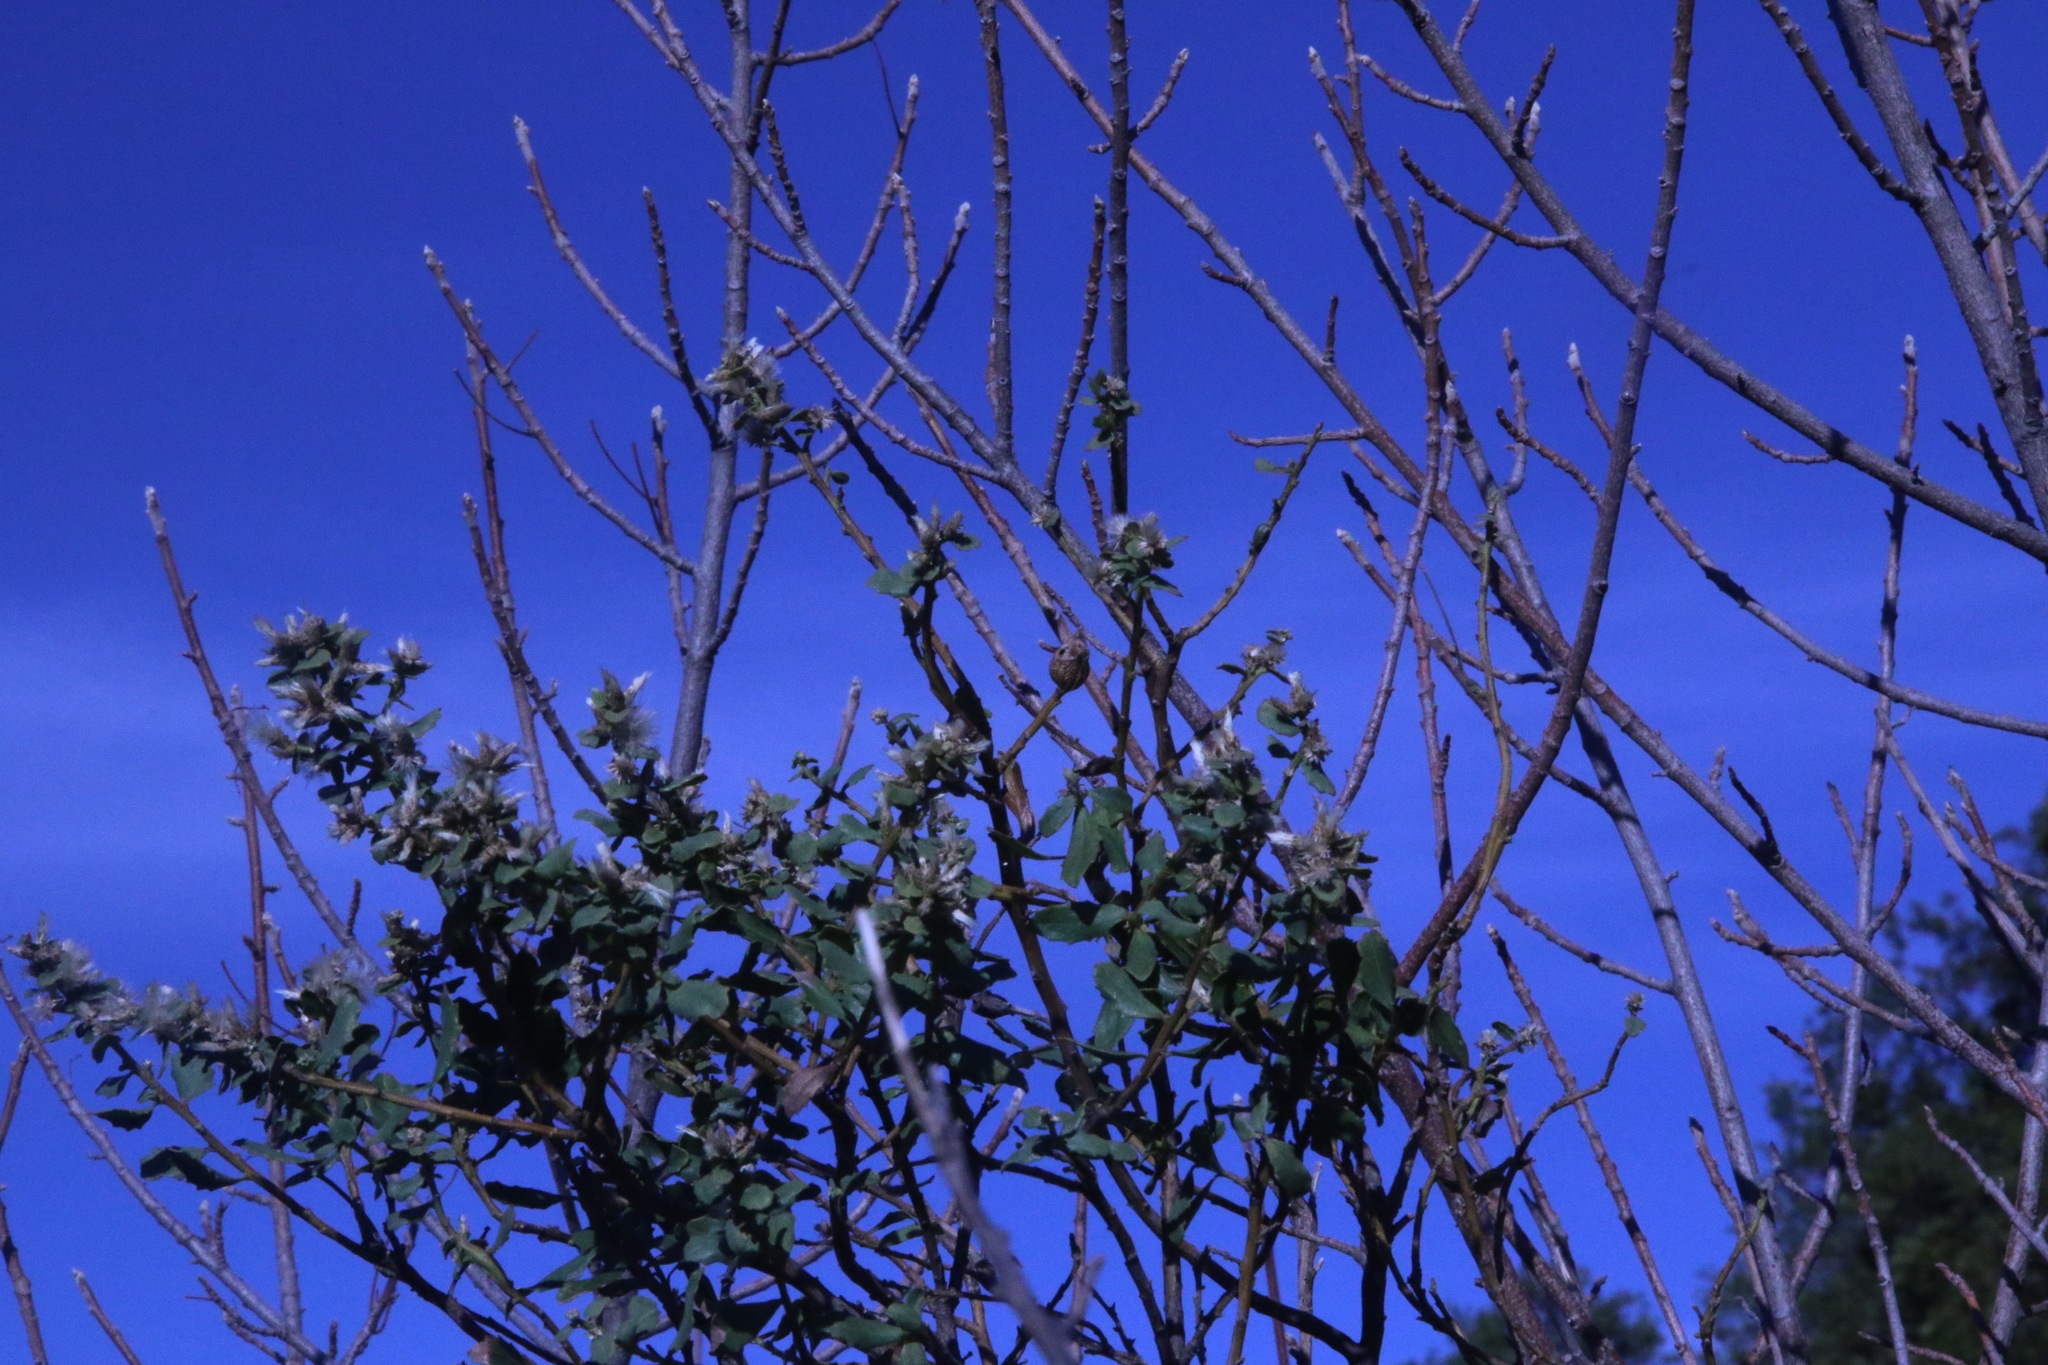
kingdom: Plantae
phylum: Tracheophyta
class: Magnoliopsida
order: Asterales
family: Asteraceae
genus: Baccharis
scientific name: Baccharis pilularis
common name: Coyotebrush
